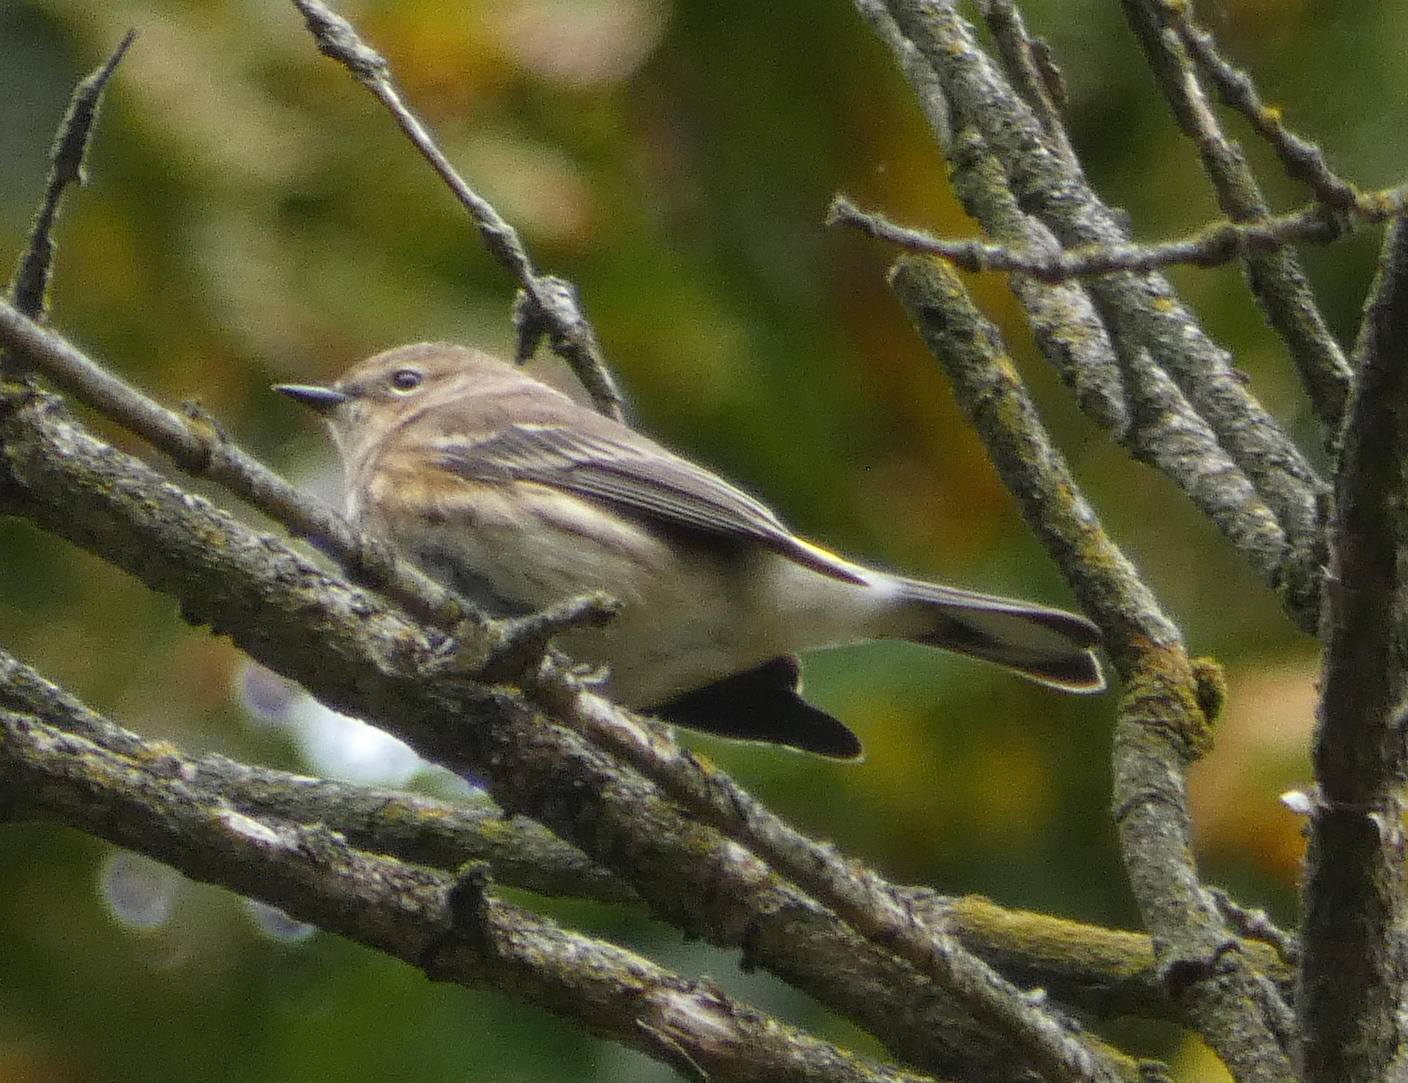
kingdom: Animalia
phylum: Chordata
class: Aves
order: Passeriformes
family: Parulidae
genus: Setophaga
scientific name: Setophaga coronata
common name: Myrtle warbler
